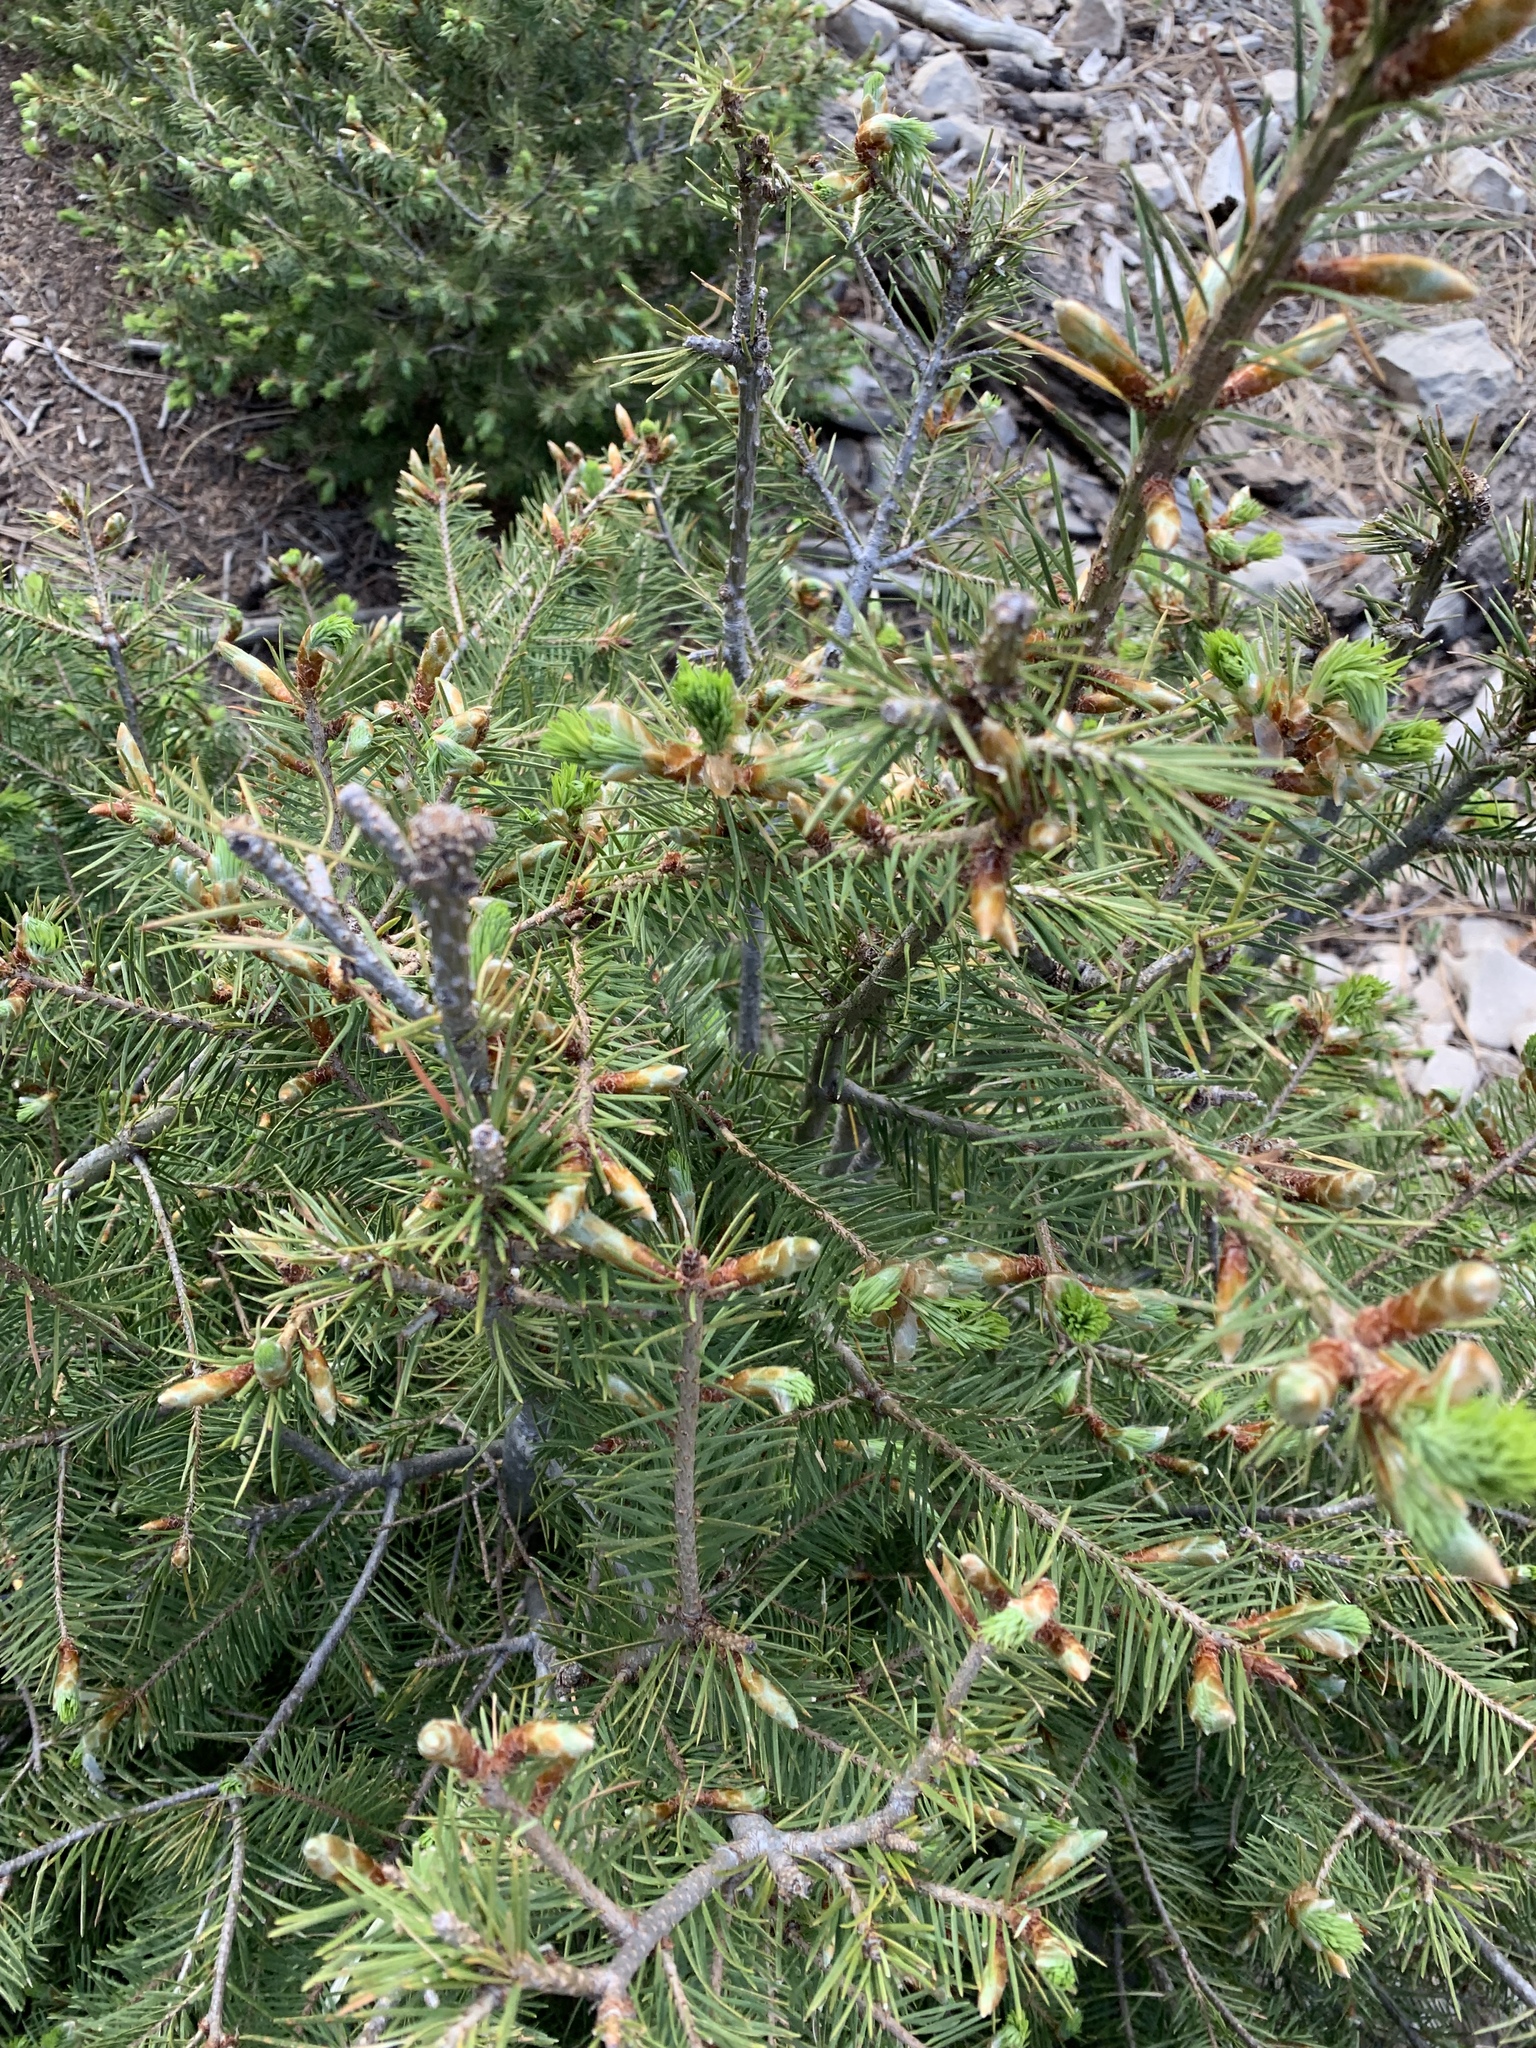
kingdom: Plantae
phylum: Tracheophyta
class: Pinopsida
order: Pinales
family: Pinaceae
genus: Pseudotsuga
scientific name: Pseudotsuga menziesii
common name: Douglas fir
